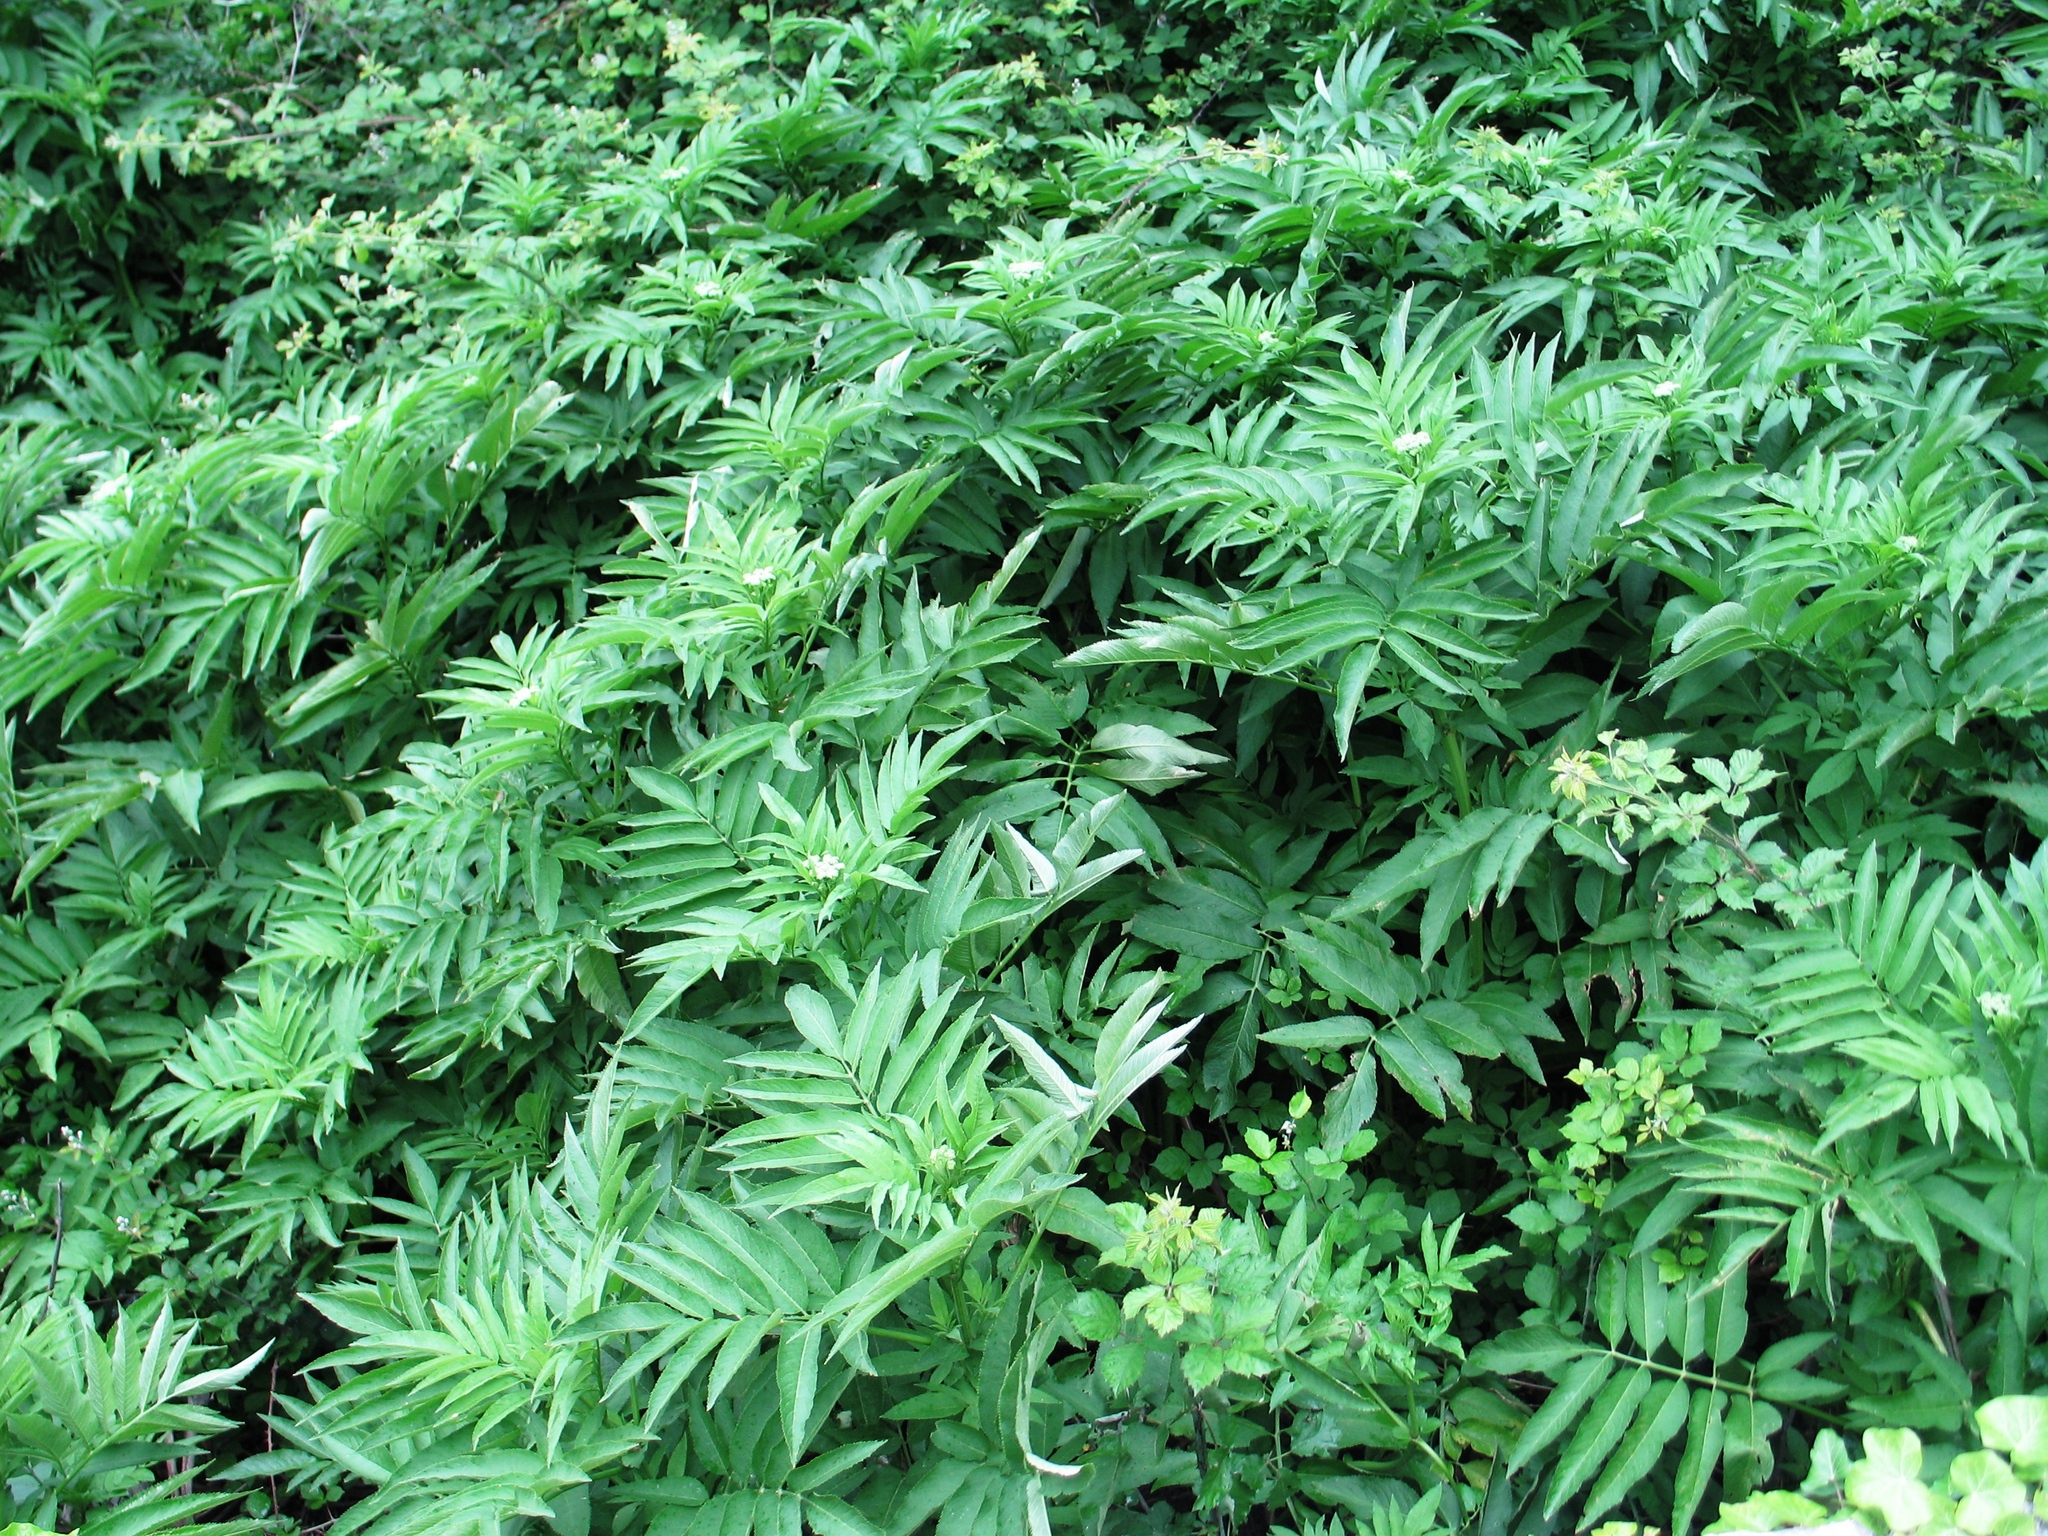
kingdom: Plantae
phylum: Tracheophyta
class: Magnoliopsida
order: Dipsacales
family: Viburnaceae
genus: Sambucus
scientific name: Sambucus ebulus
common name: Dwarf elder
